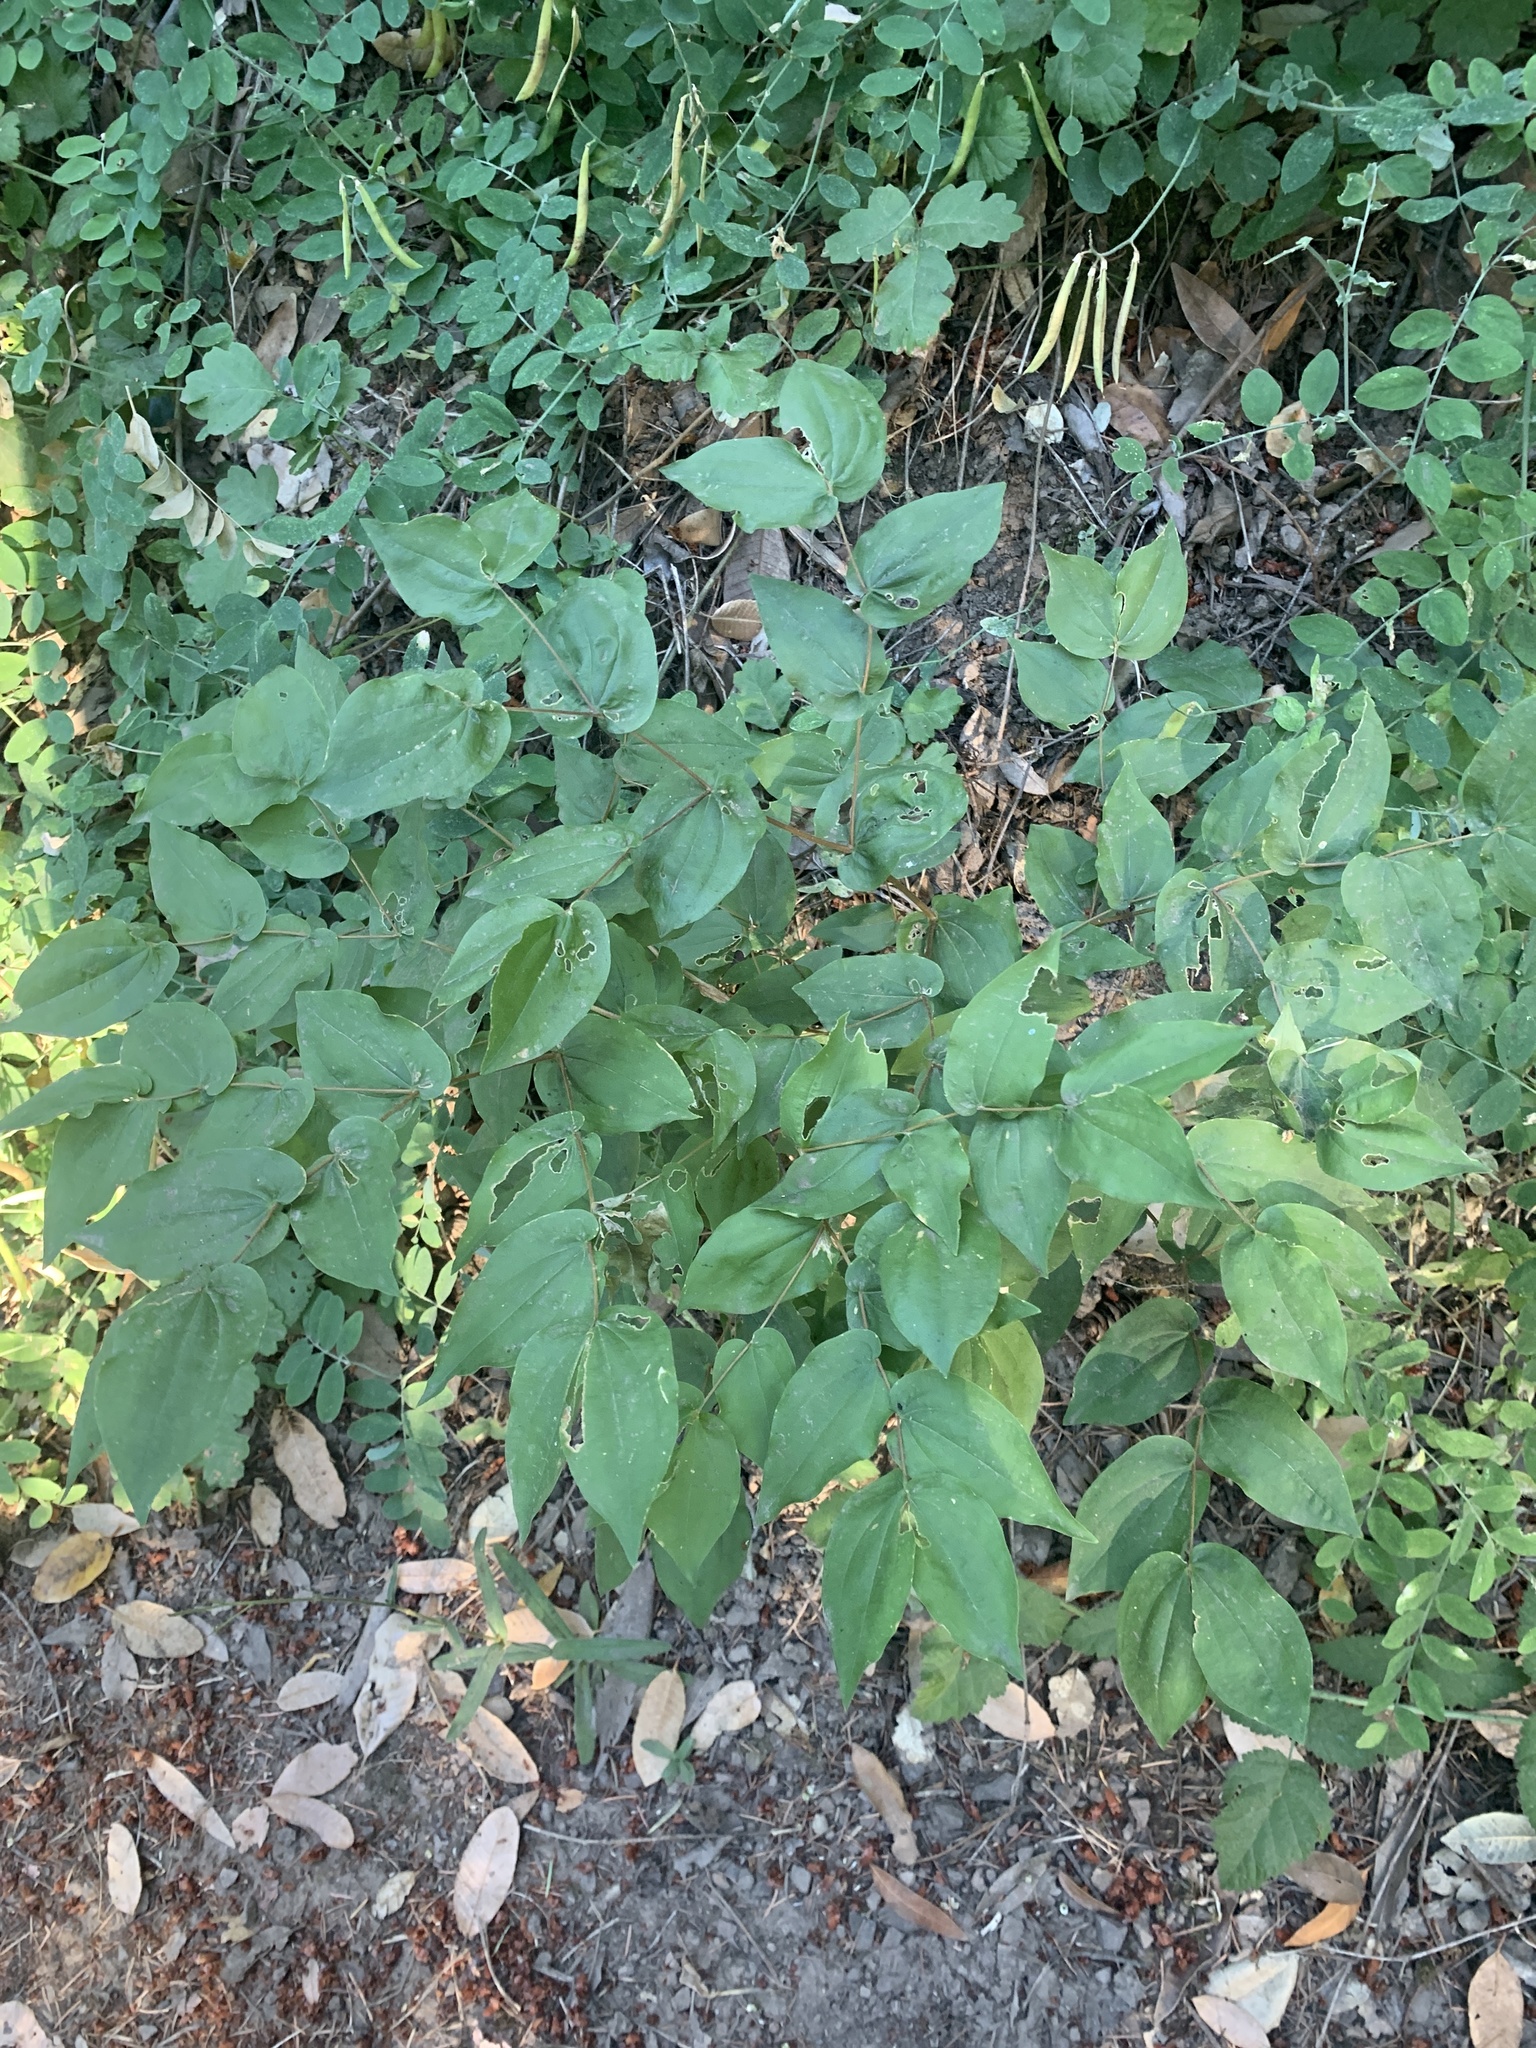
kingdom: Plantae
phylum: Tracheophyta
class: Liliopsida
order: Liliales
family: Liliaceae
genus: Prosartes
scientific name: Prosartes hookeri
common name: Fairy-bells
